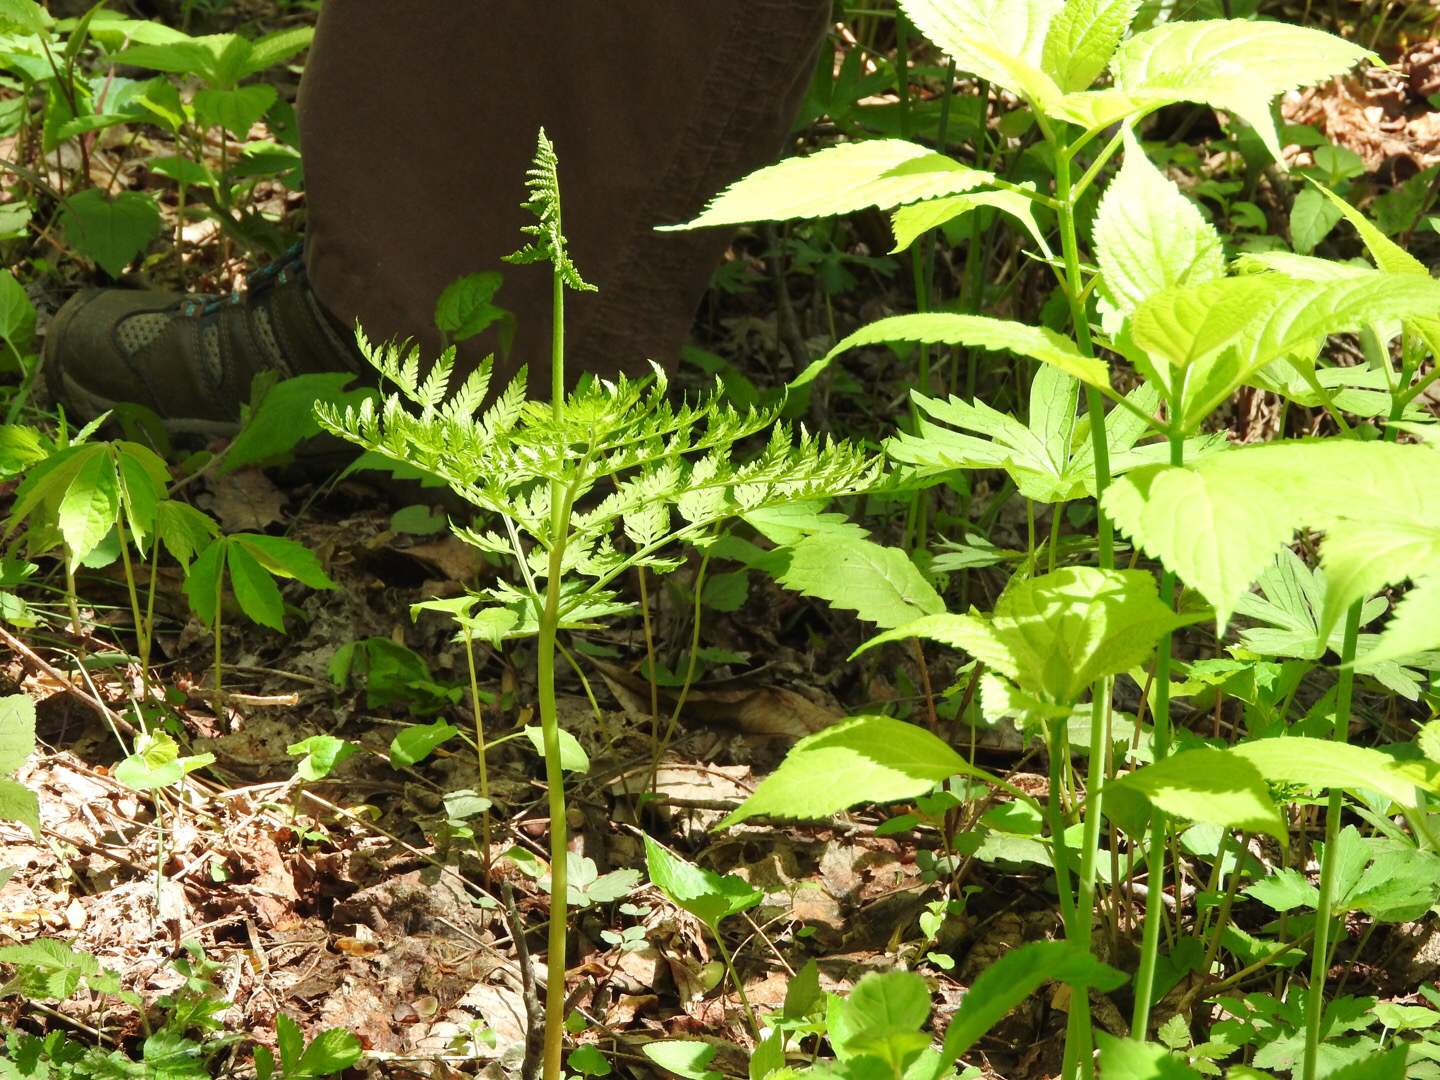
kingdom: Plantae
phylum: Tracheophyta
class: Polypodiopsida
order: Ophioglossales
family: Ophioglossaceae
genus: Botrypus
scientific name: Botrypus virginianus
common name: Common grapefern
